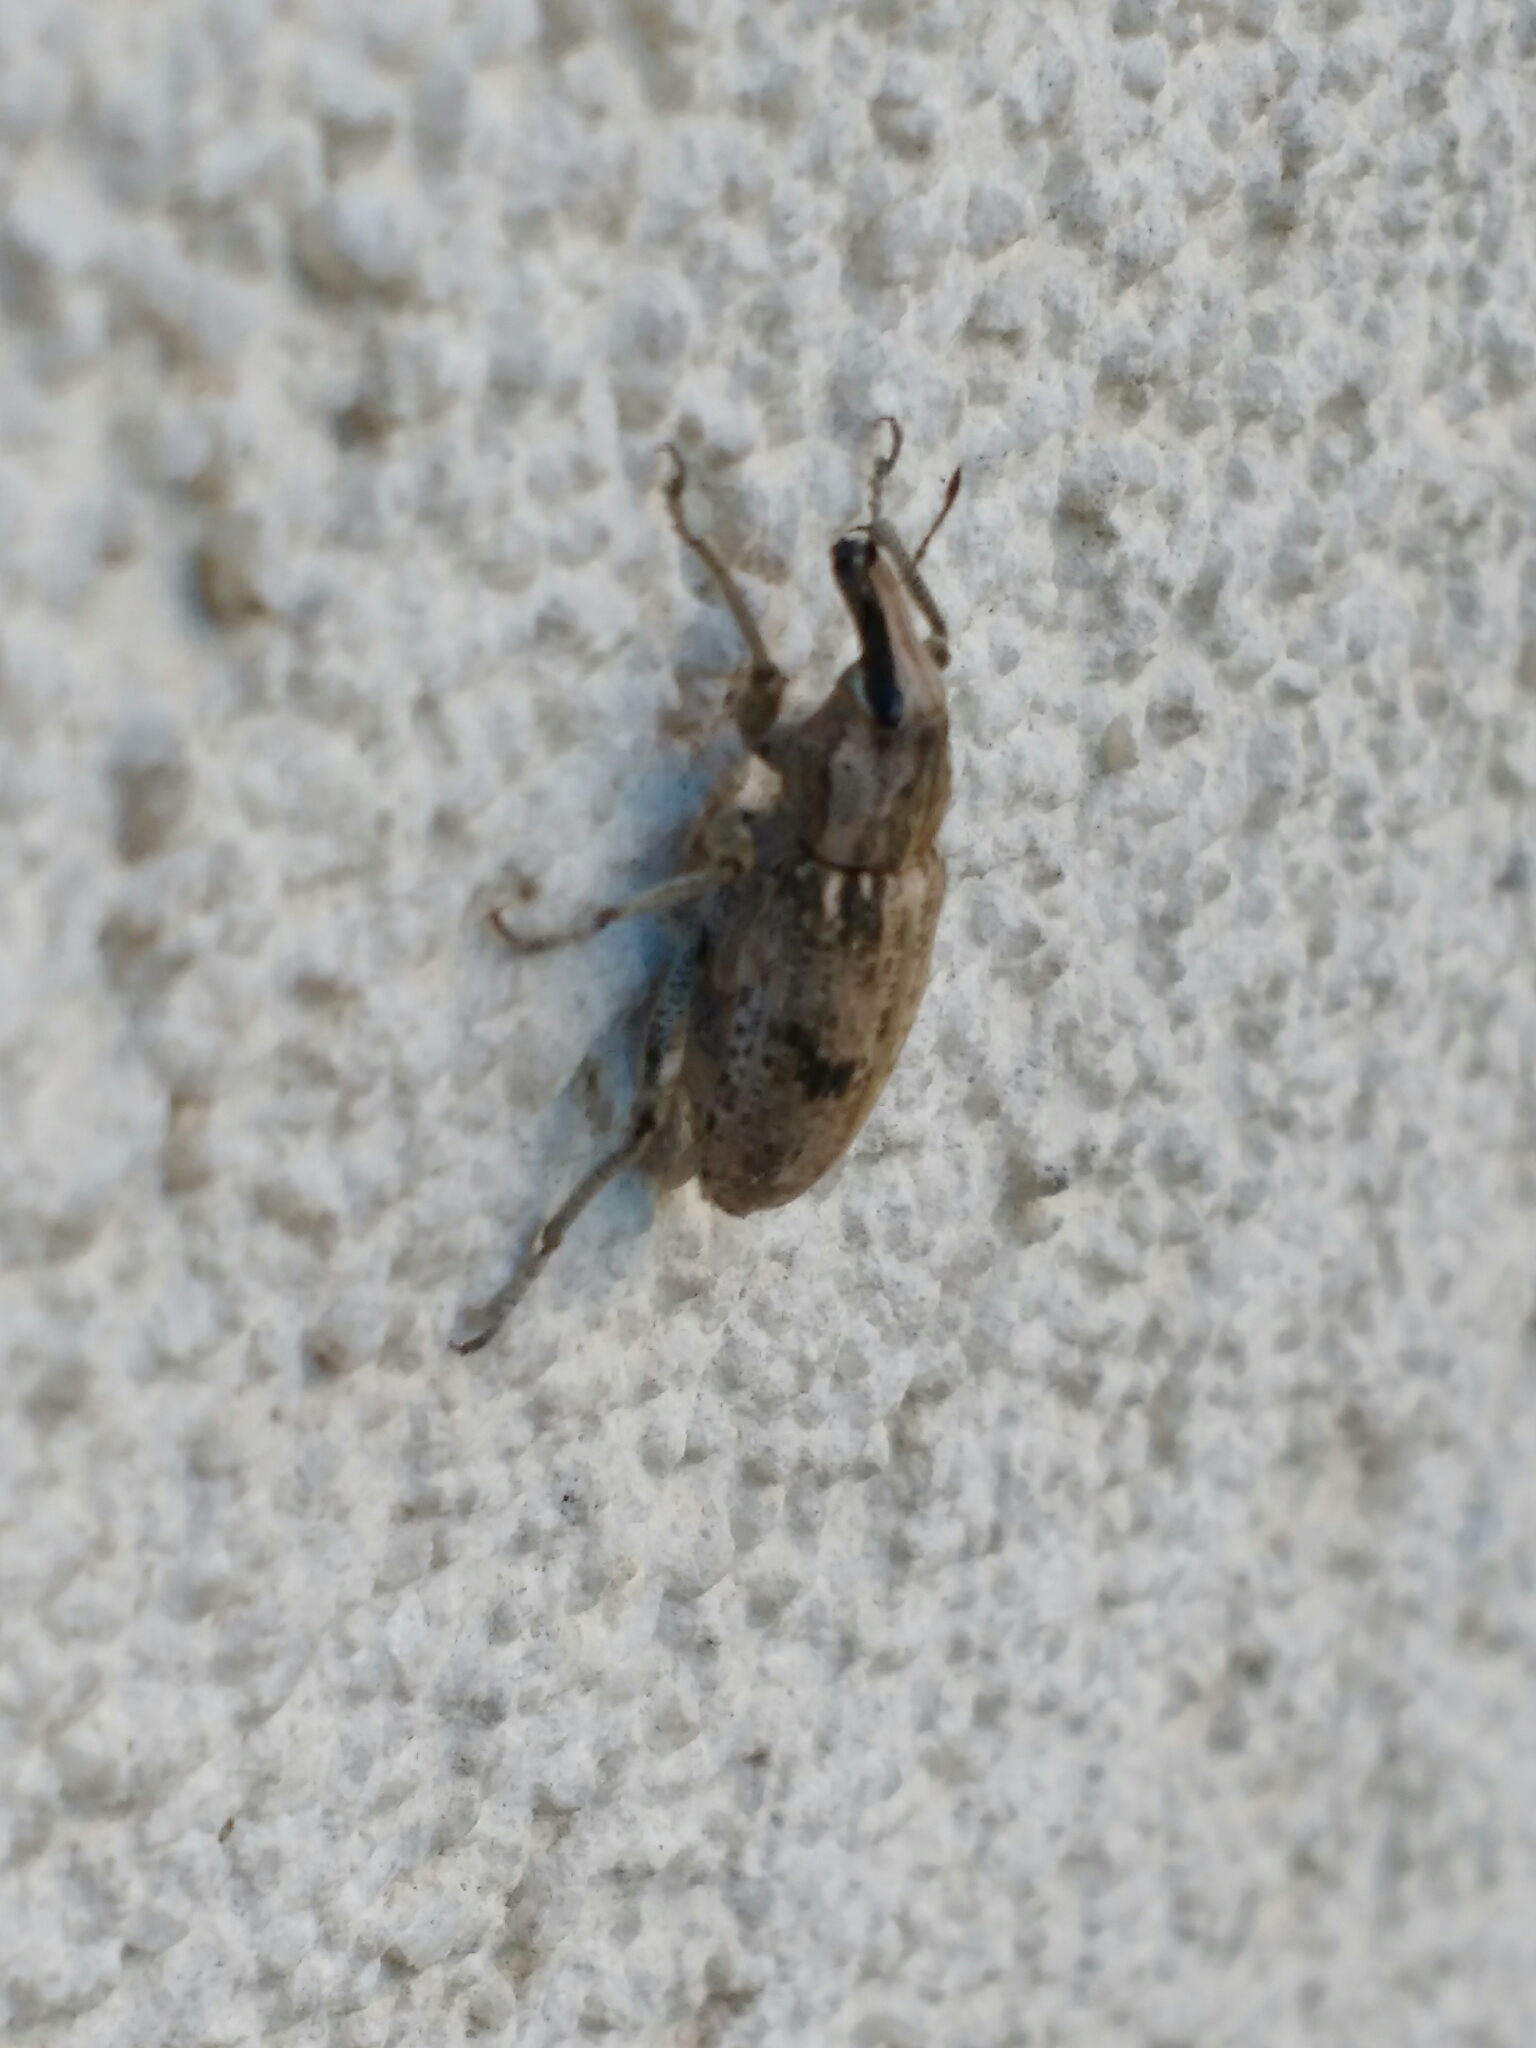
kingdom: Animalia
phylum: Arthropoda
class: Insecta
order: Coleoptera
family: Curculionidae
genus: Asproparthenis
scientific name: Asproparthenis punctiventris
